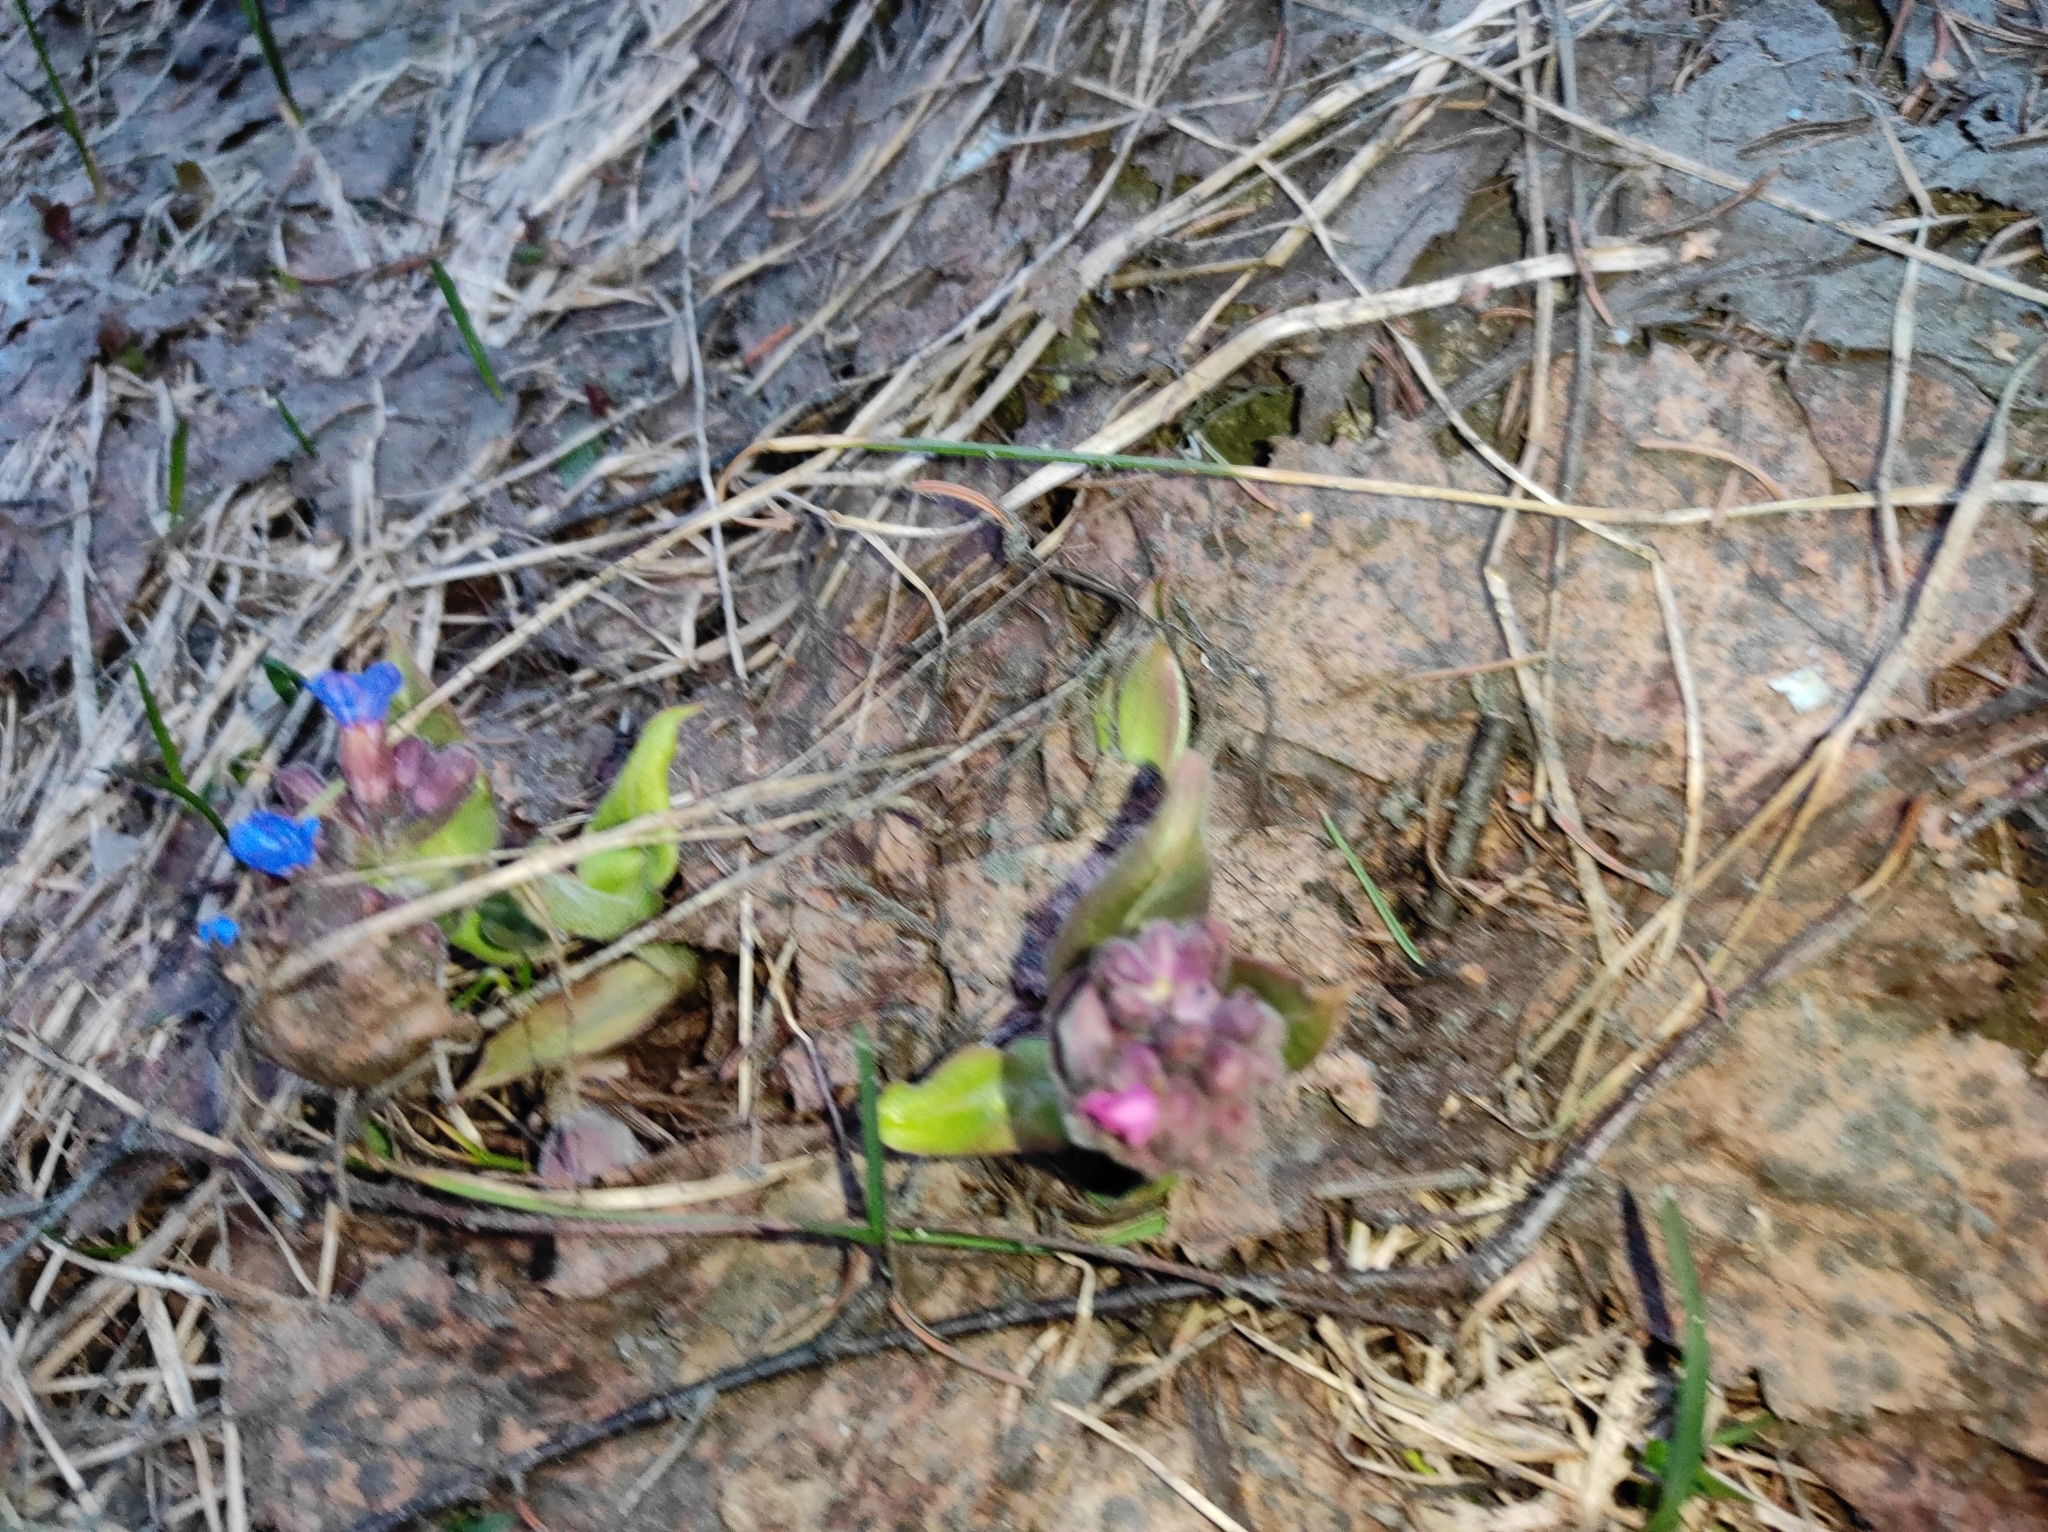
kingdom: Plantae
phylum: Tracheophyta
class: Magnoliopsida
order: Boraginales
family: Boraginaceae
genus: Pulmonaria
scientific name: Pulmonaria mollis
